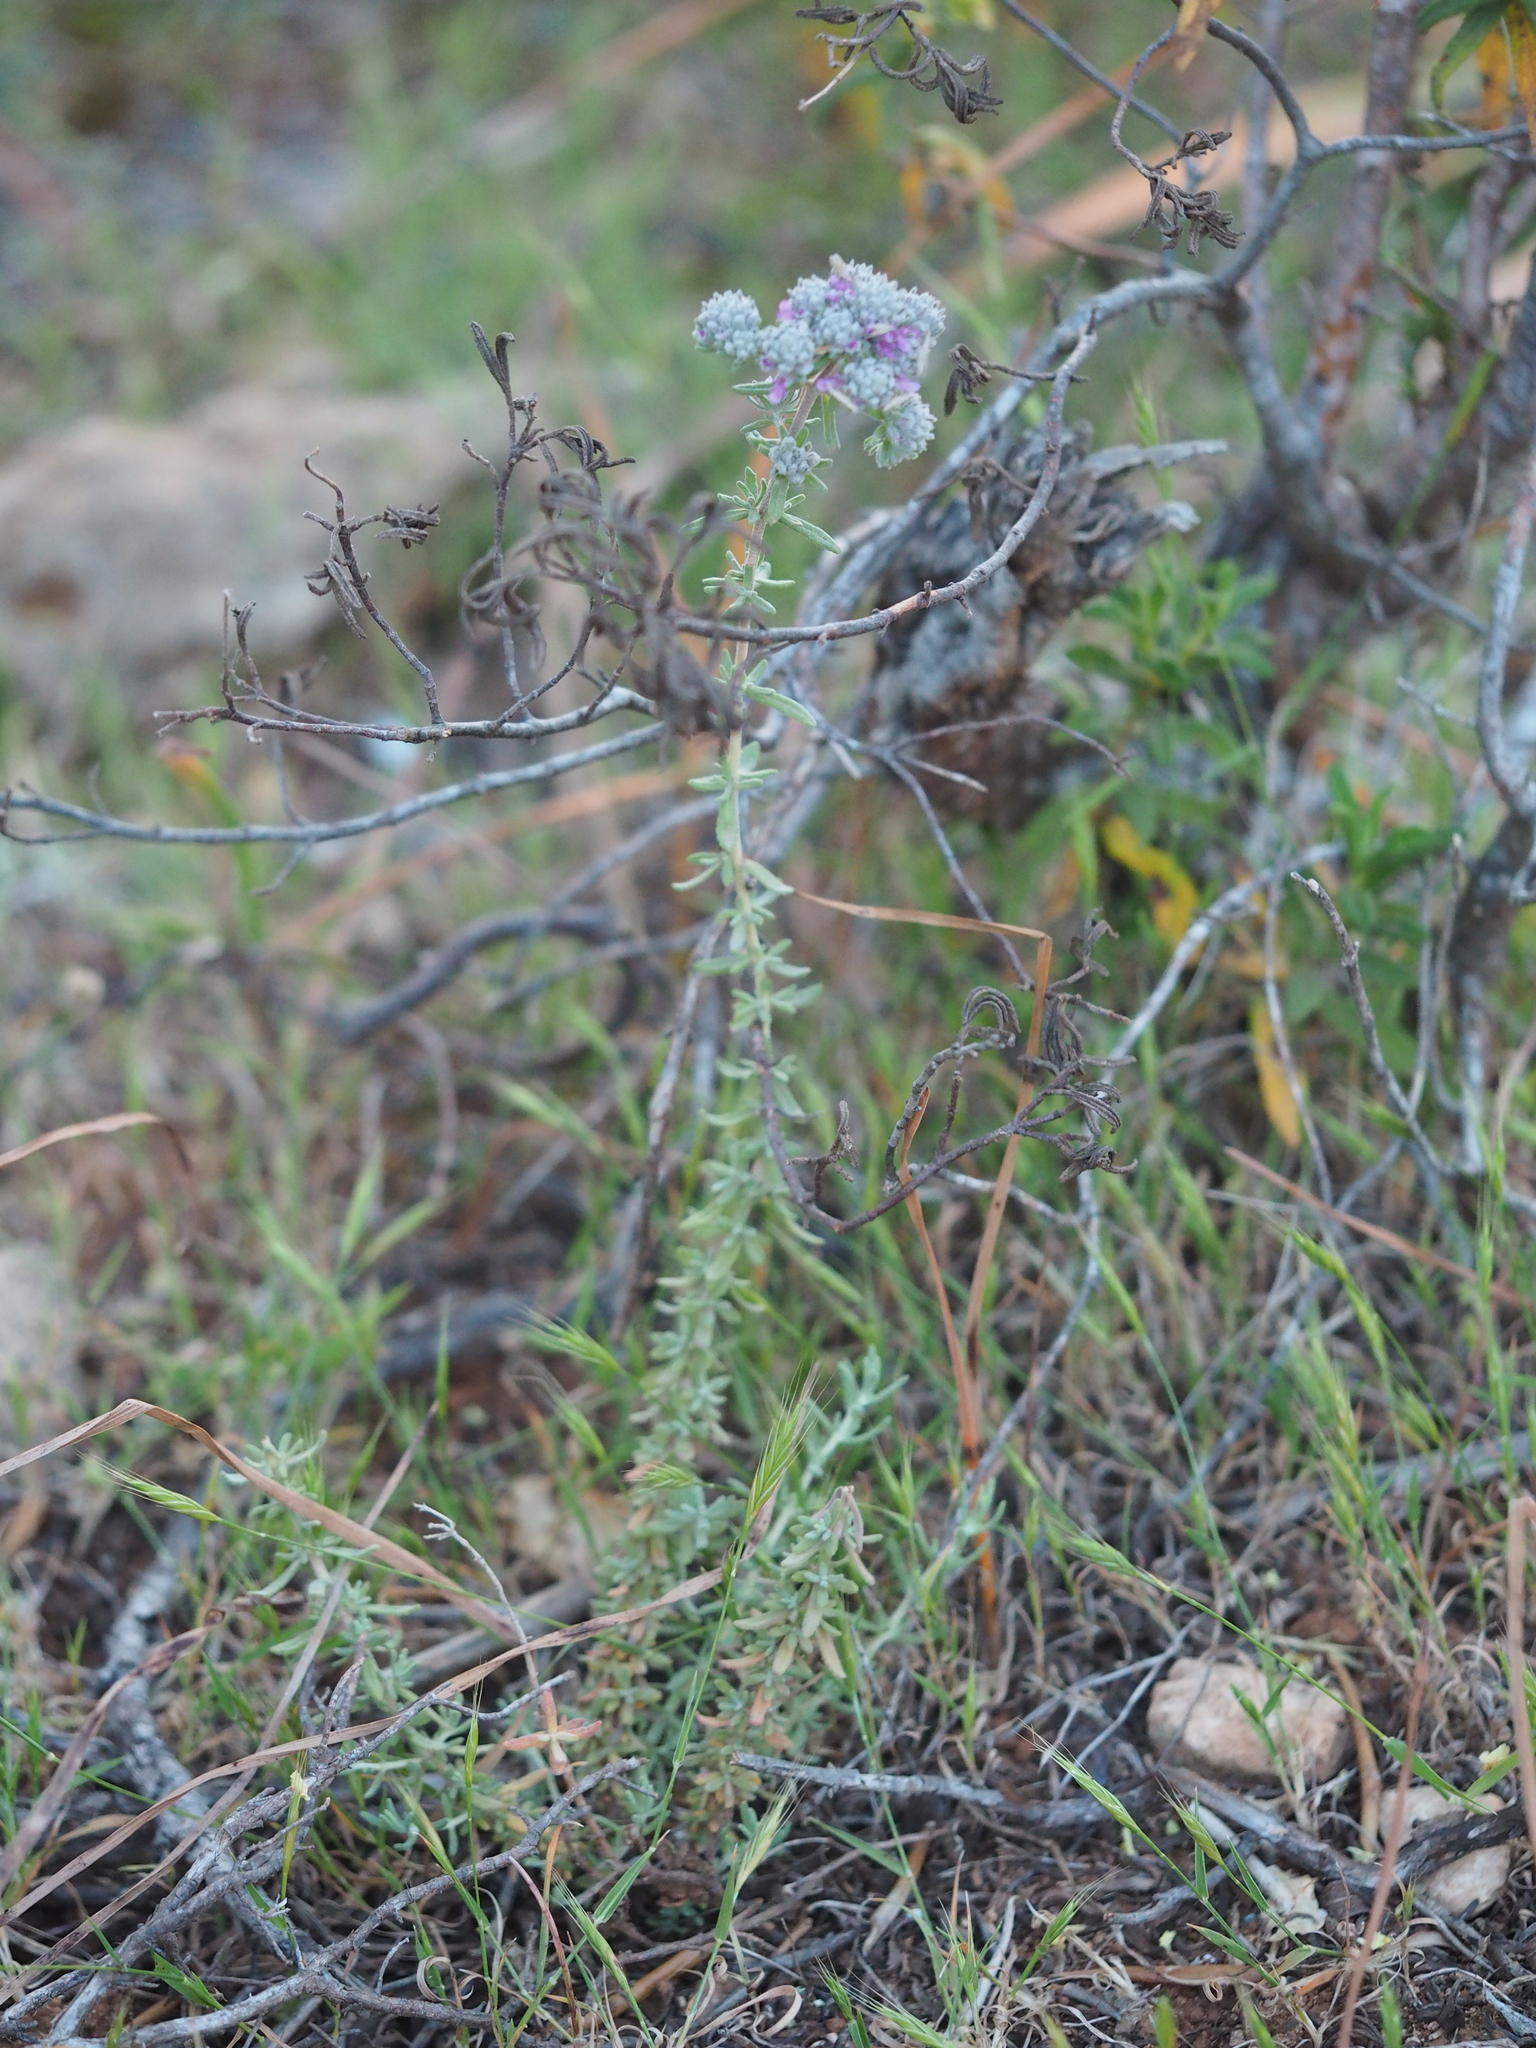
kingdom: Plantae
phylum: Tracheophyta
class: Magnoliopsida
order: Lamiales
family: Lamiaceae
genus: Teucrium
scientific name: Teucrium capitatum
